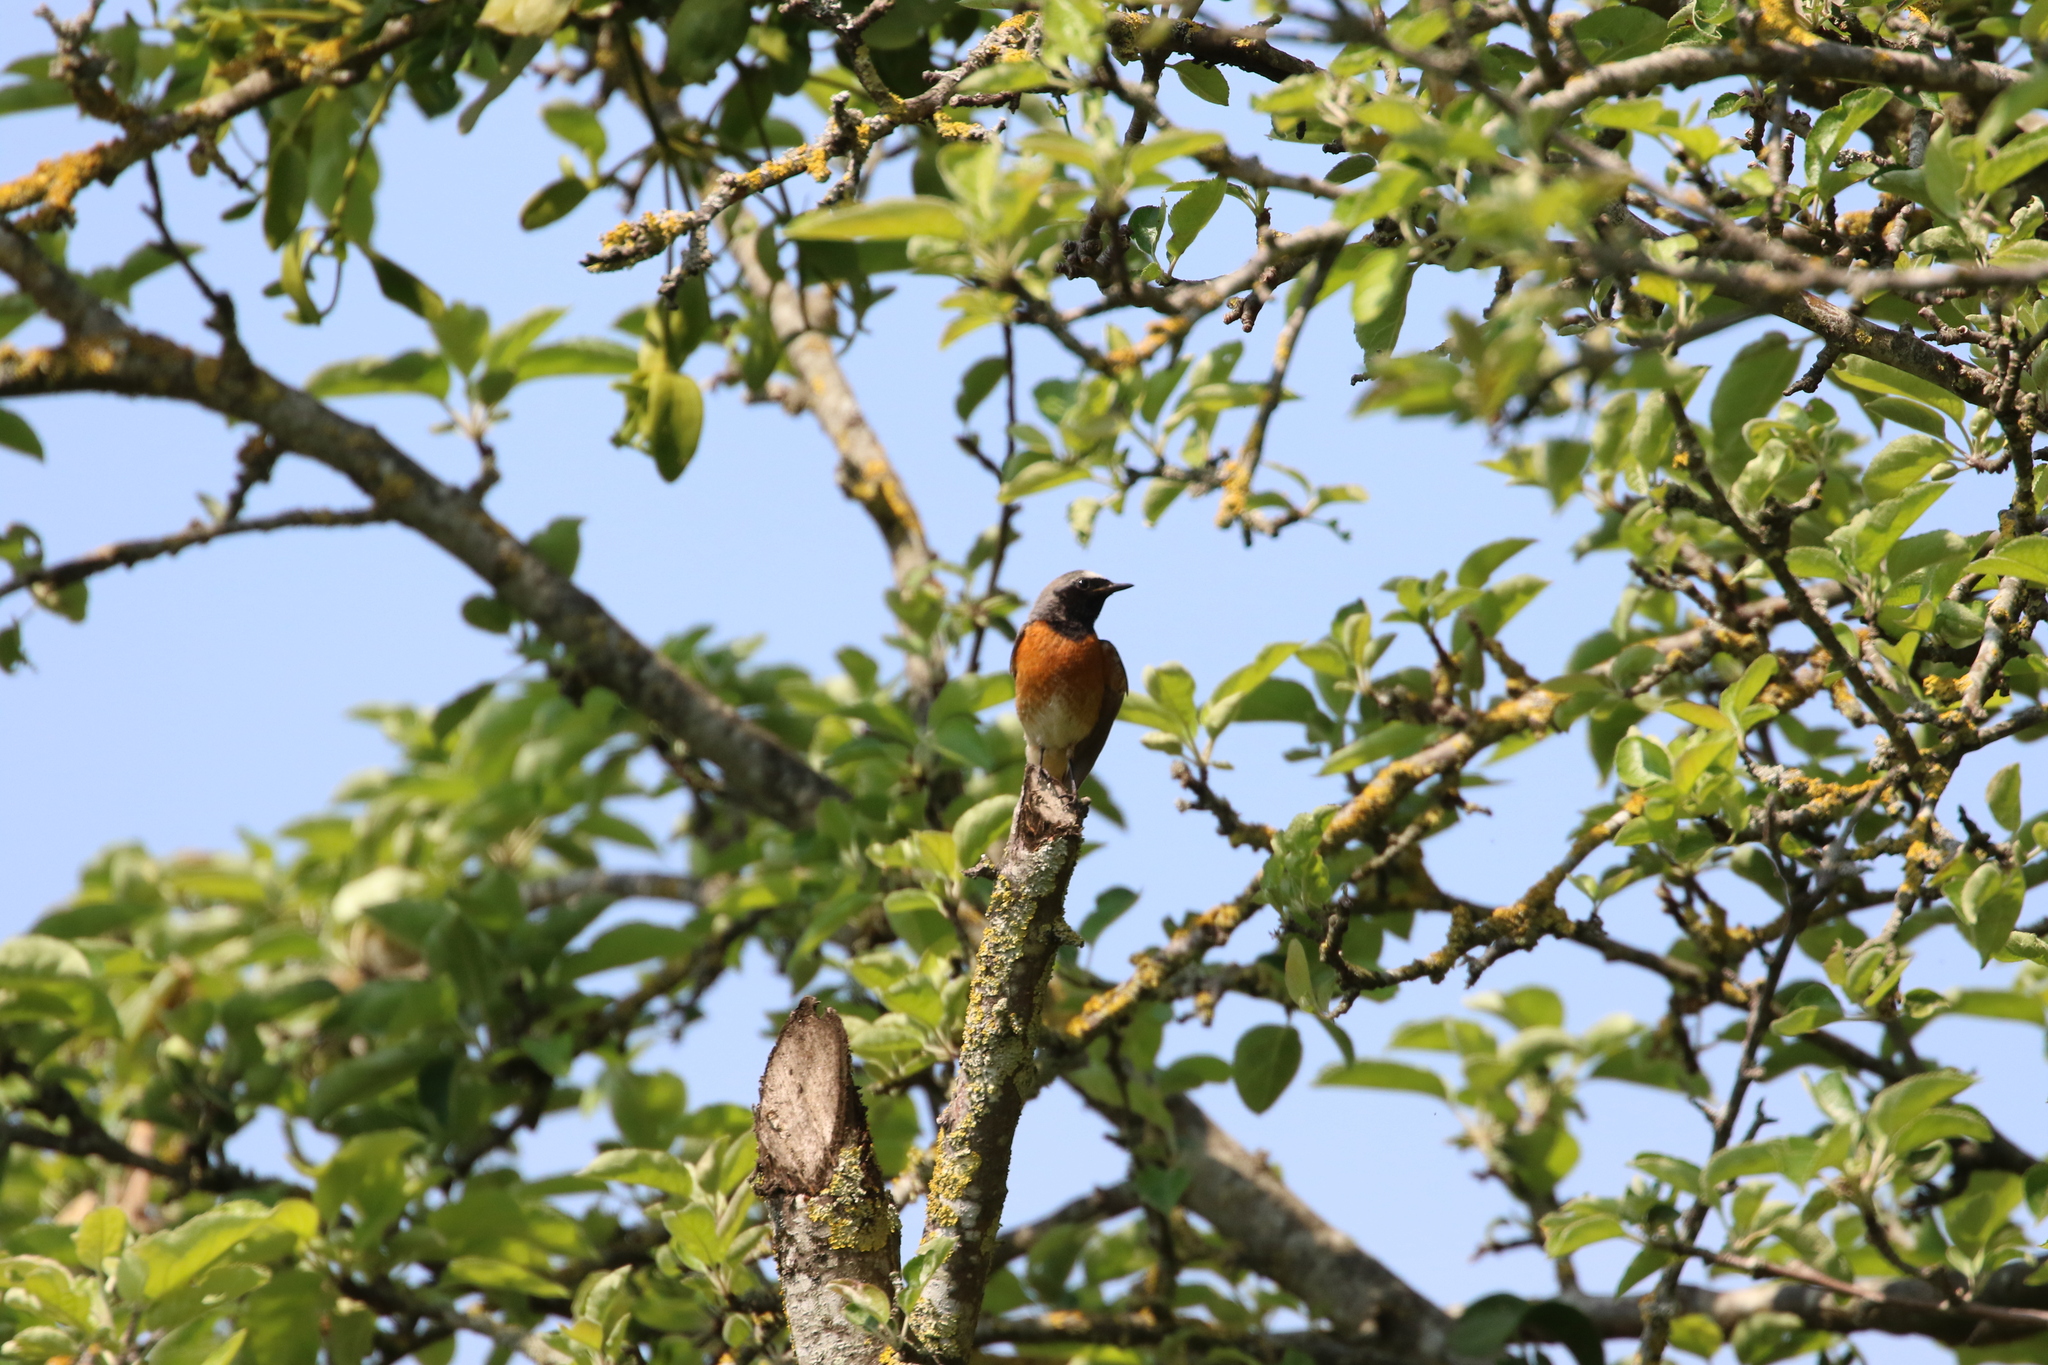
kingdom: Animalia
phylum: Chordata
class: Aves
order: Passeriformes
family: Muscicapidae
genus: Phoenicurus
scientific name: Phoenicurus phoenicurus
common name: Common redstart
